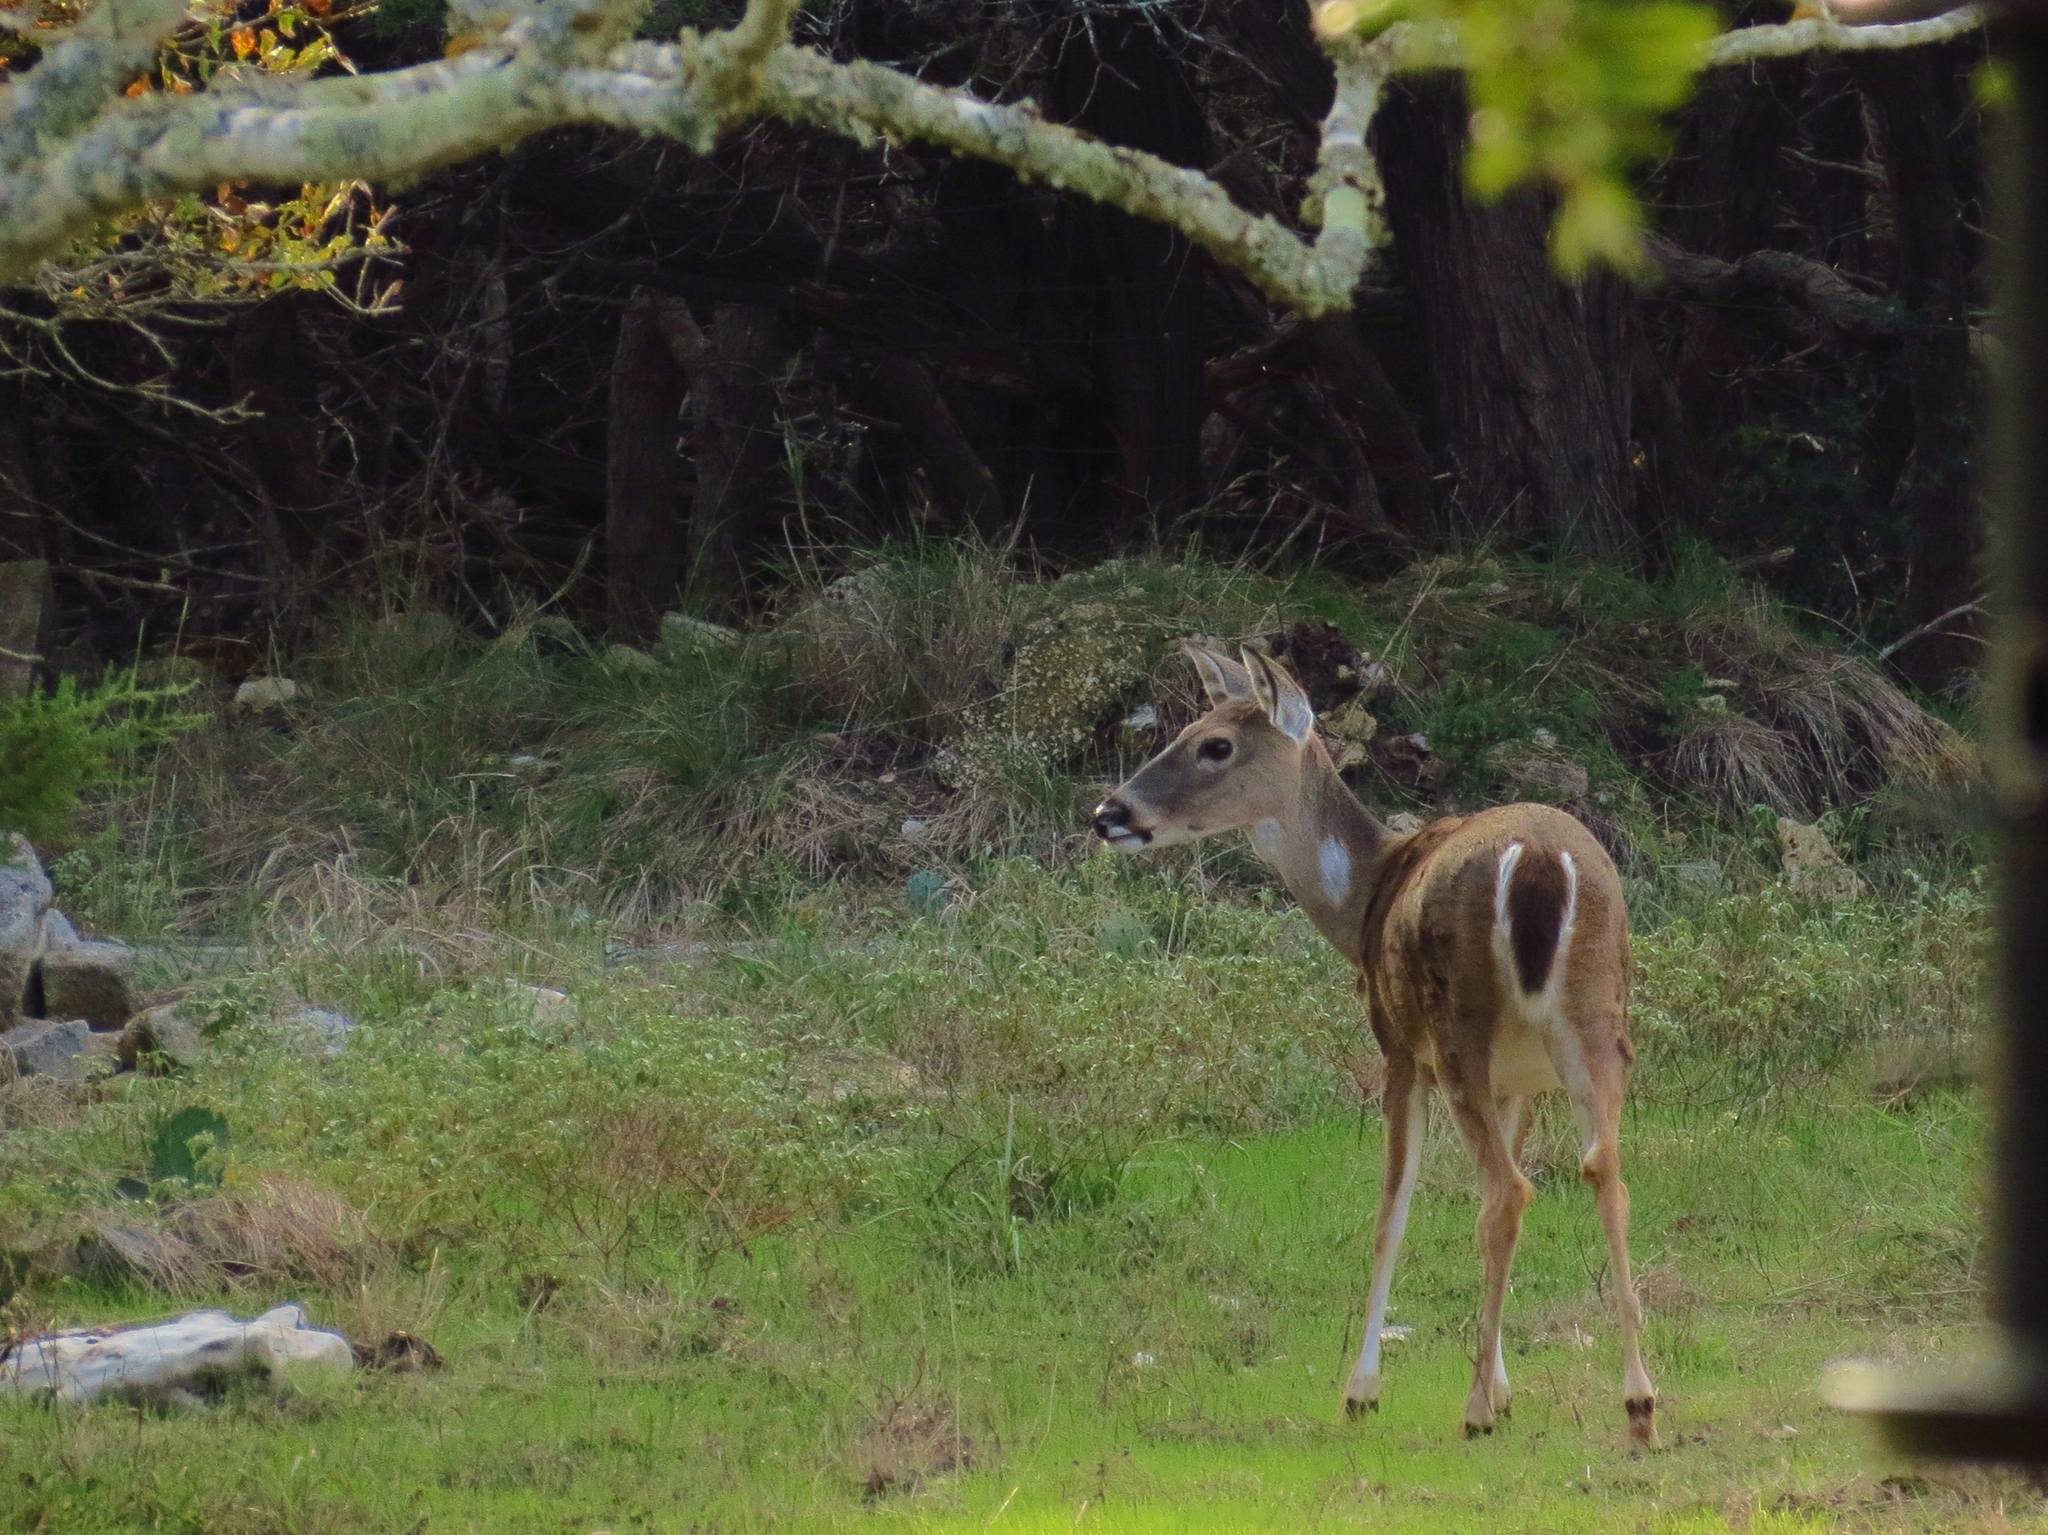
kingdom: Animalia
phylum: Chordata
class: Mammalia
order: Artiodactyla
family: Cervidae
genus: Odocoileus
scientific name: Odocoileus virginianus
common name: White-tailed deer
